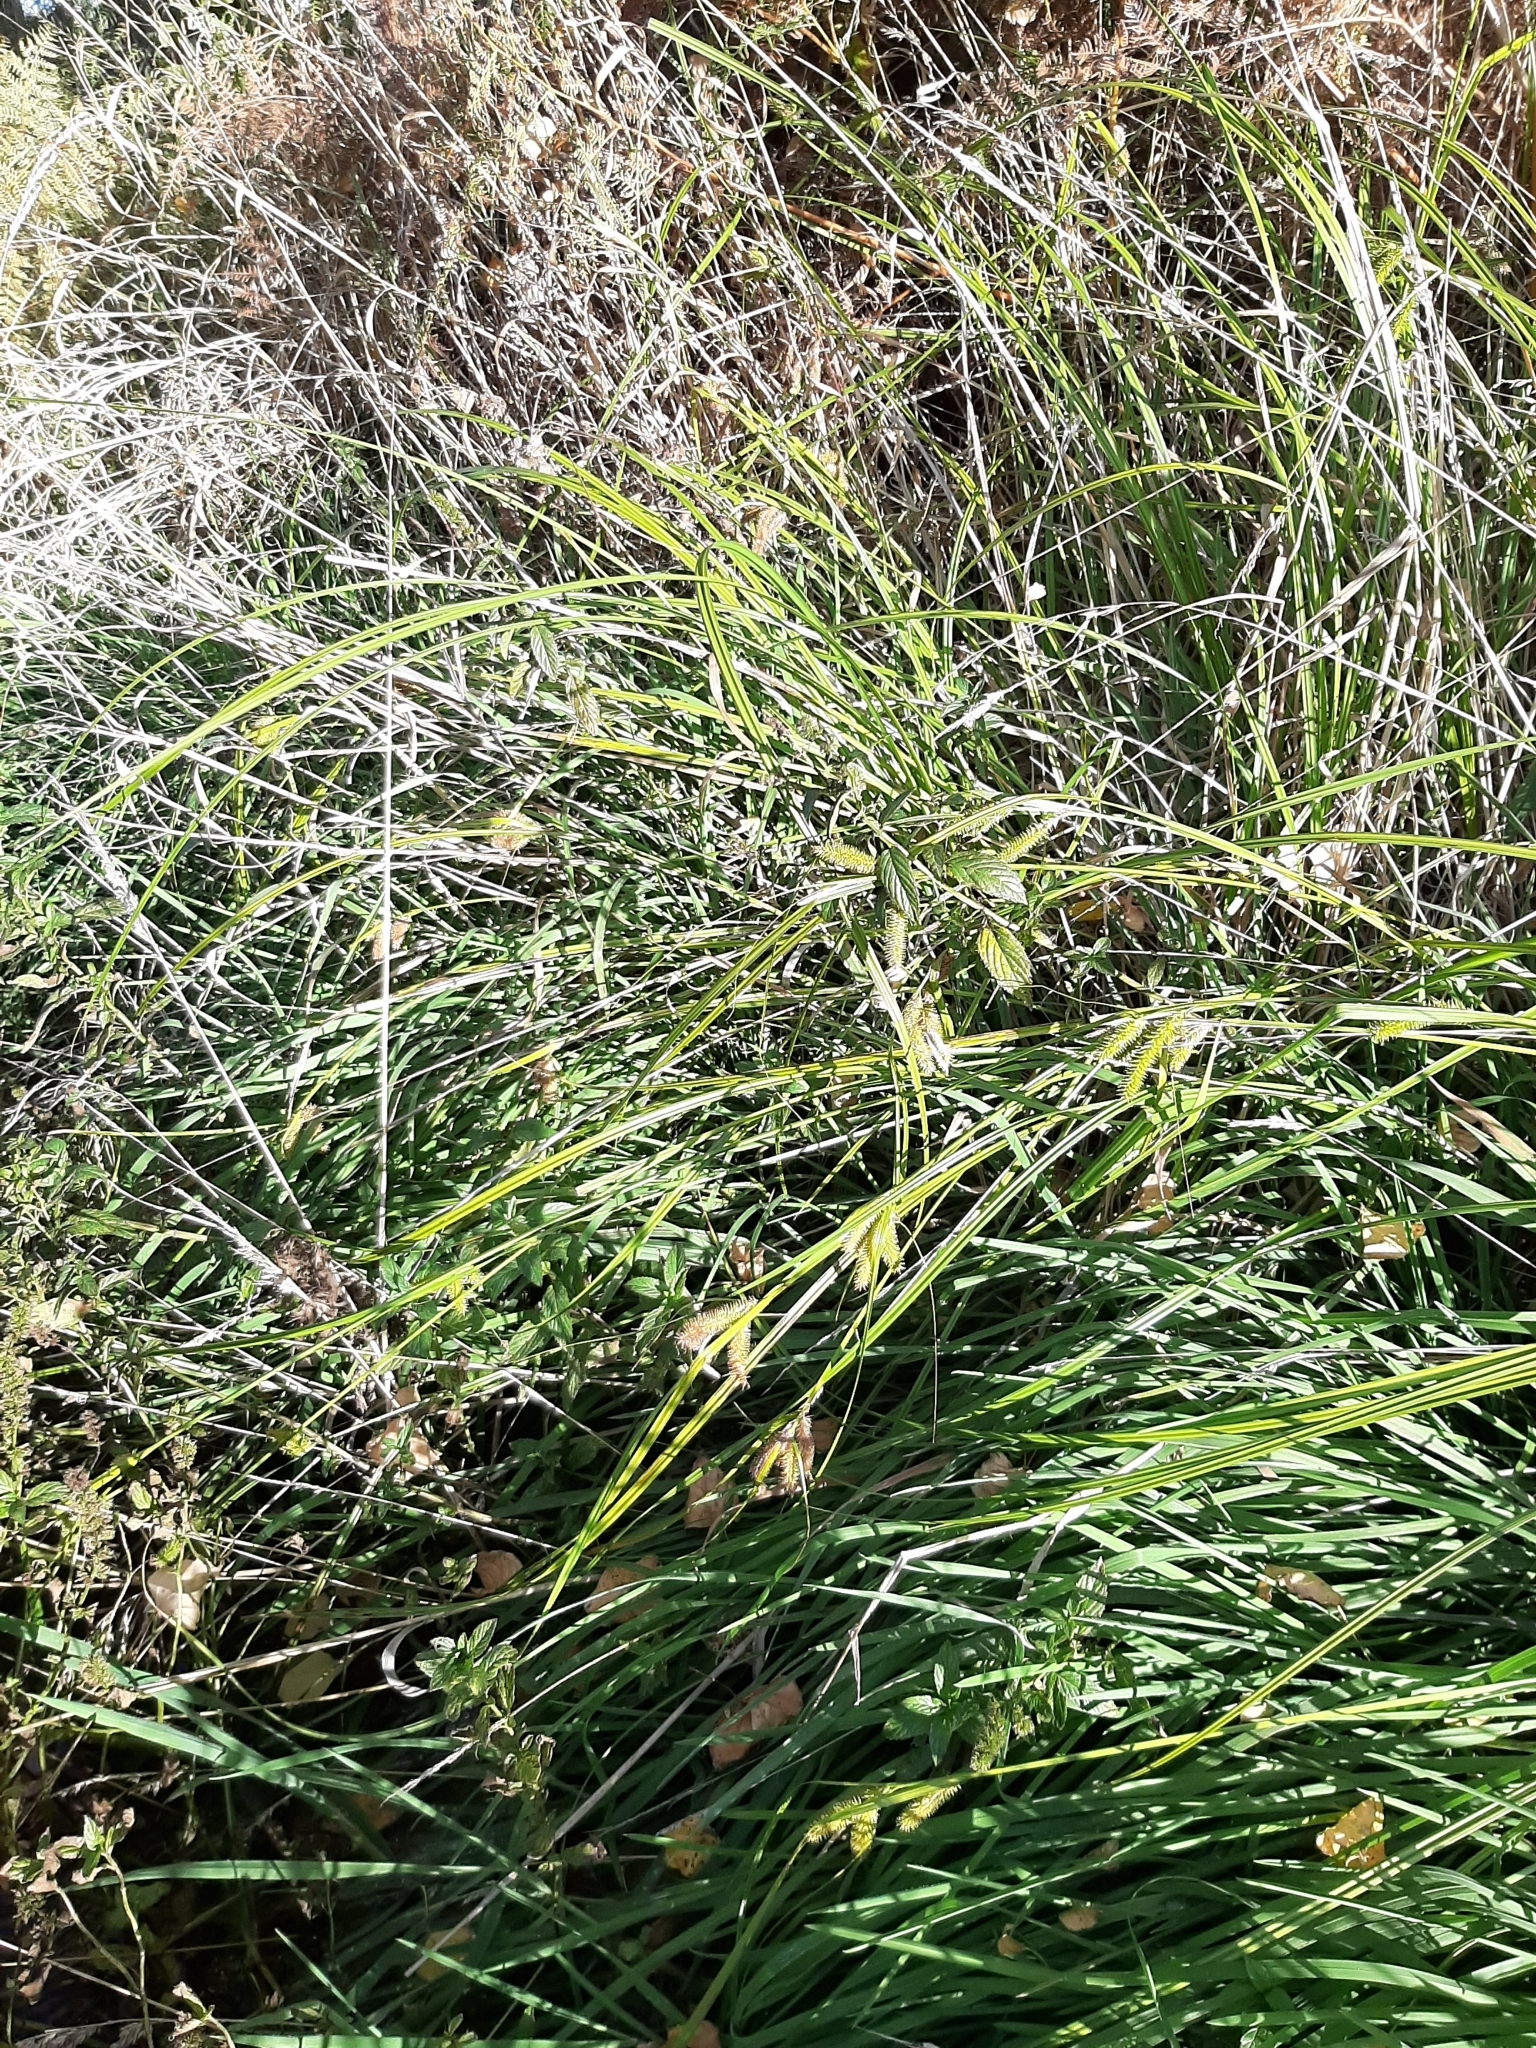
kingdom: Plantae
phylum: Tracheophyta
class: Liliopsida
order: Poales
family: Cyperaceae
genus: Carex
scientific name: Carex maorica
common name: Maori sedge
